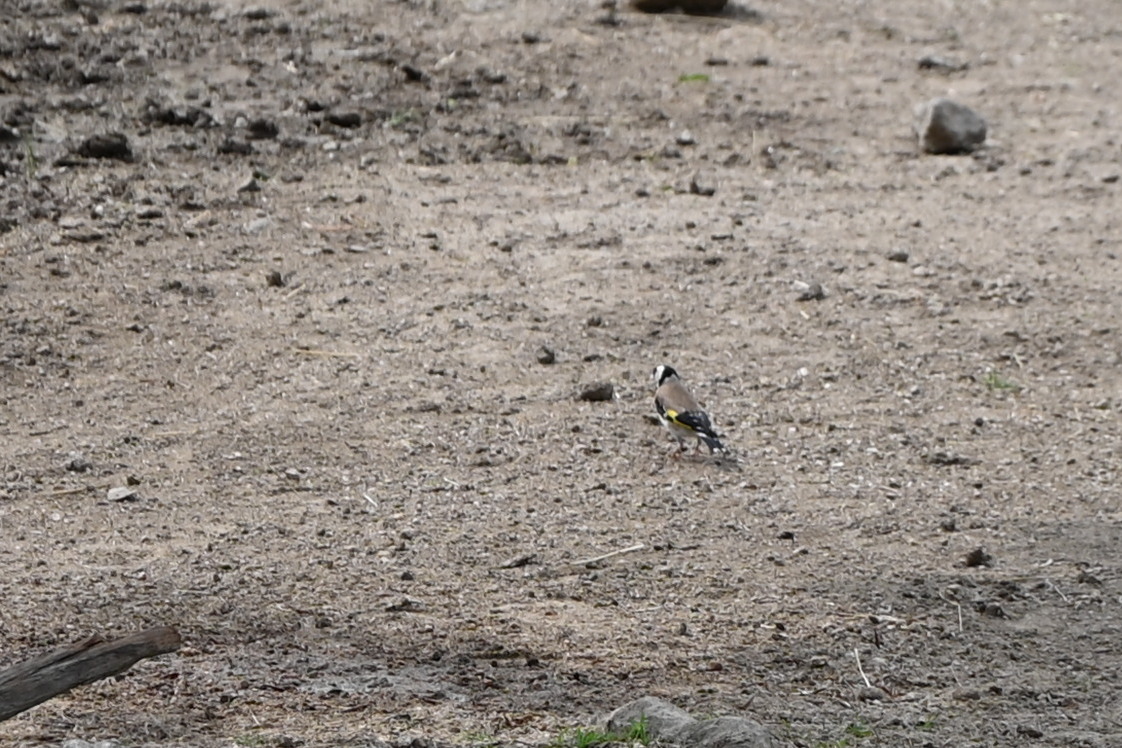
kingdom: Animalia
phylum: Chordata
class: Aves
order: Passeriformes
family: Fringillidae
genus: Carduelis
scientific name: Carduelis carduelis
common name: European goldfinch
